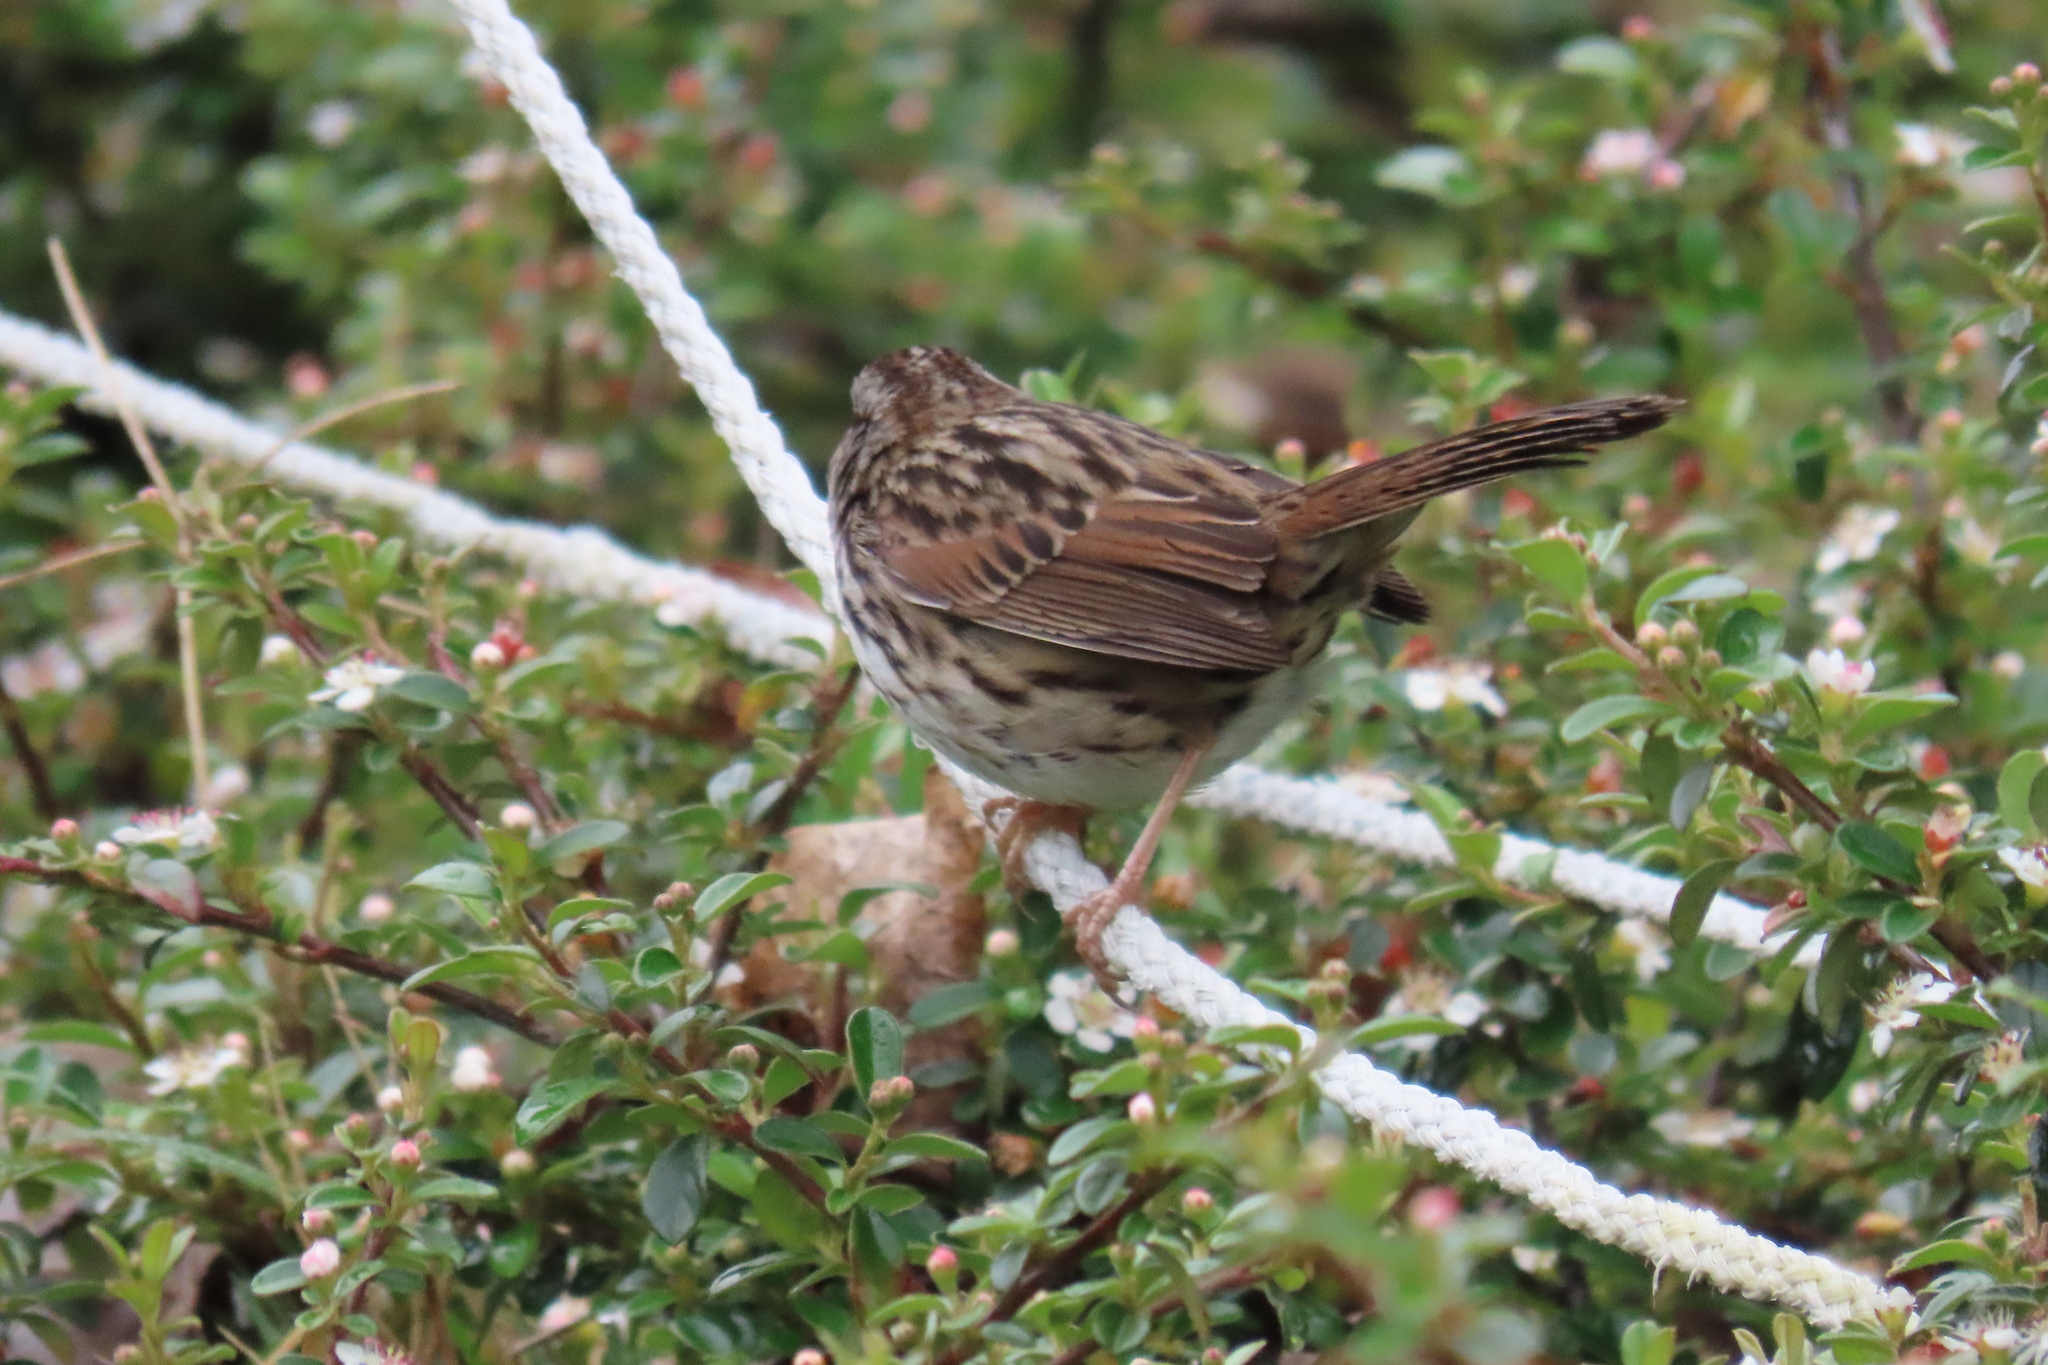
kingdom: Animalia
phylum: Chordata
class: Aves
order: Passeriformes
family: Passerellidae
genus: Melospiza
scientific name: Melospiza melodia
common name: Song sparrow
